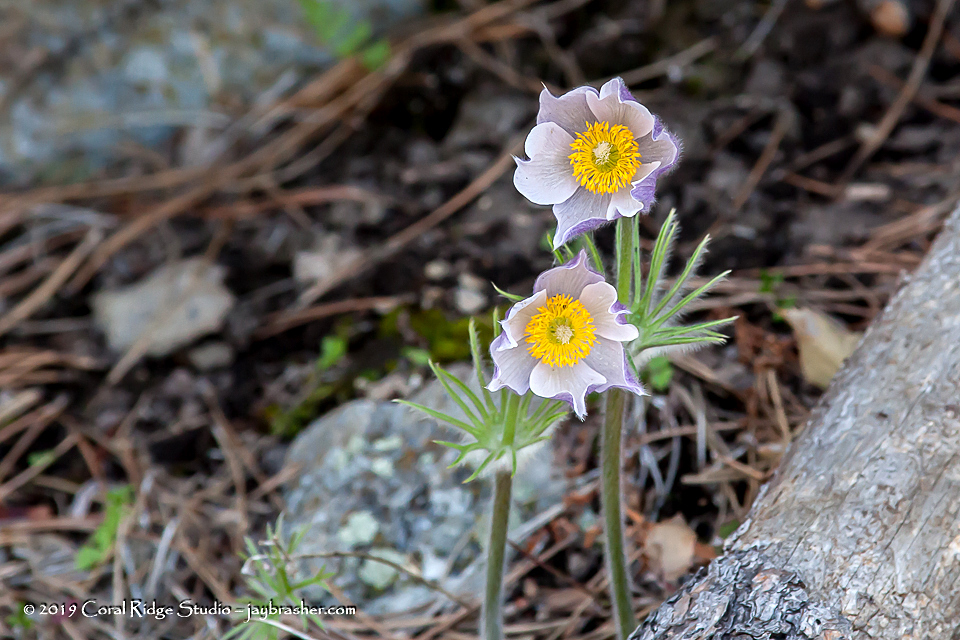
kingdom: Plantae
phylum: Tracheophyta
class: Magnoliopsida
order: Ranunculales
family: Ranunculaceae
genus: Pulsatilla
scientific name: Pulsatilla nuttalliana
